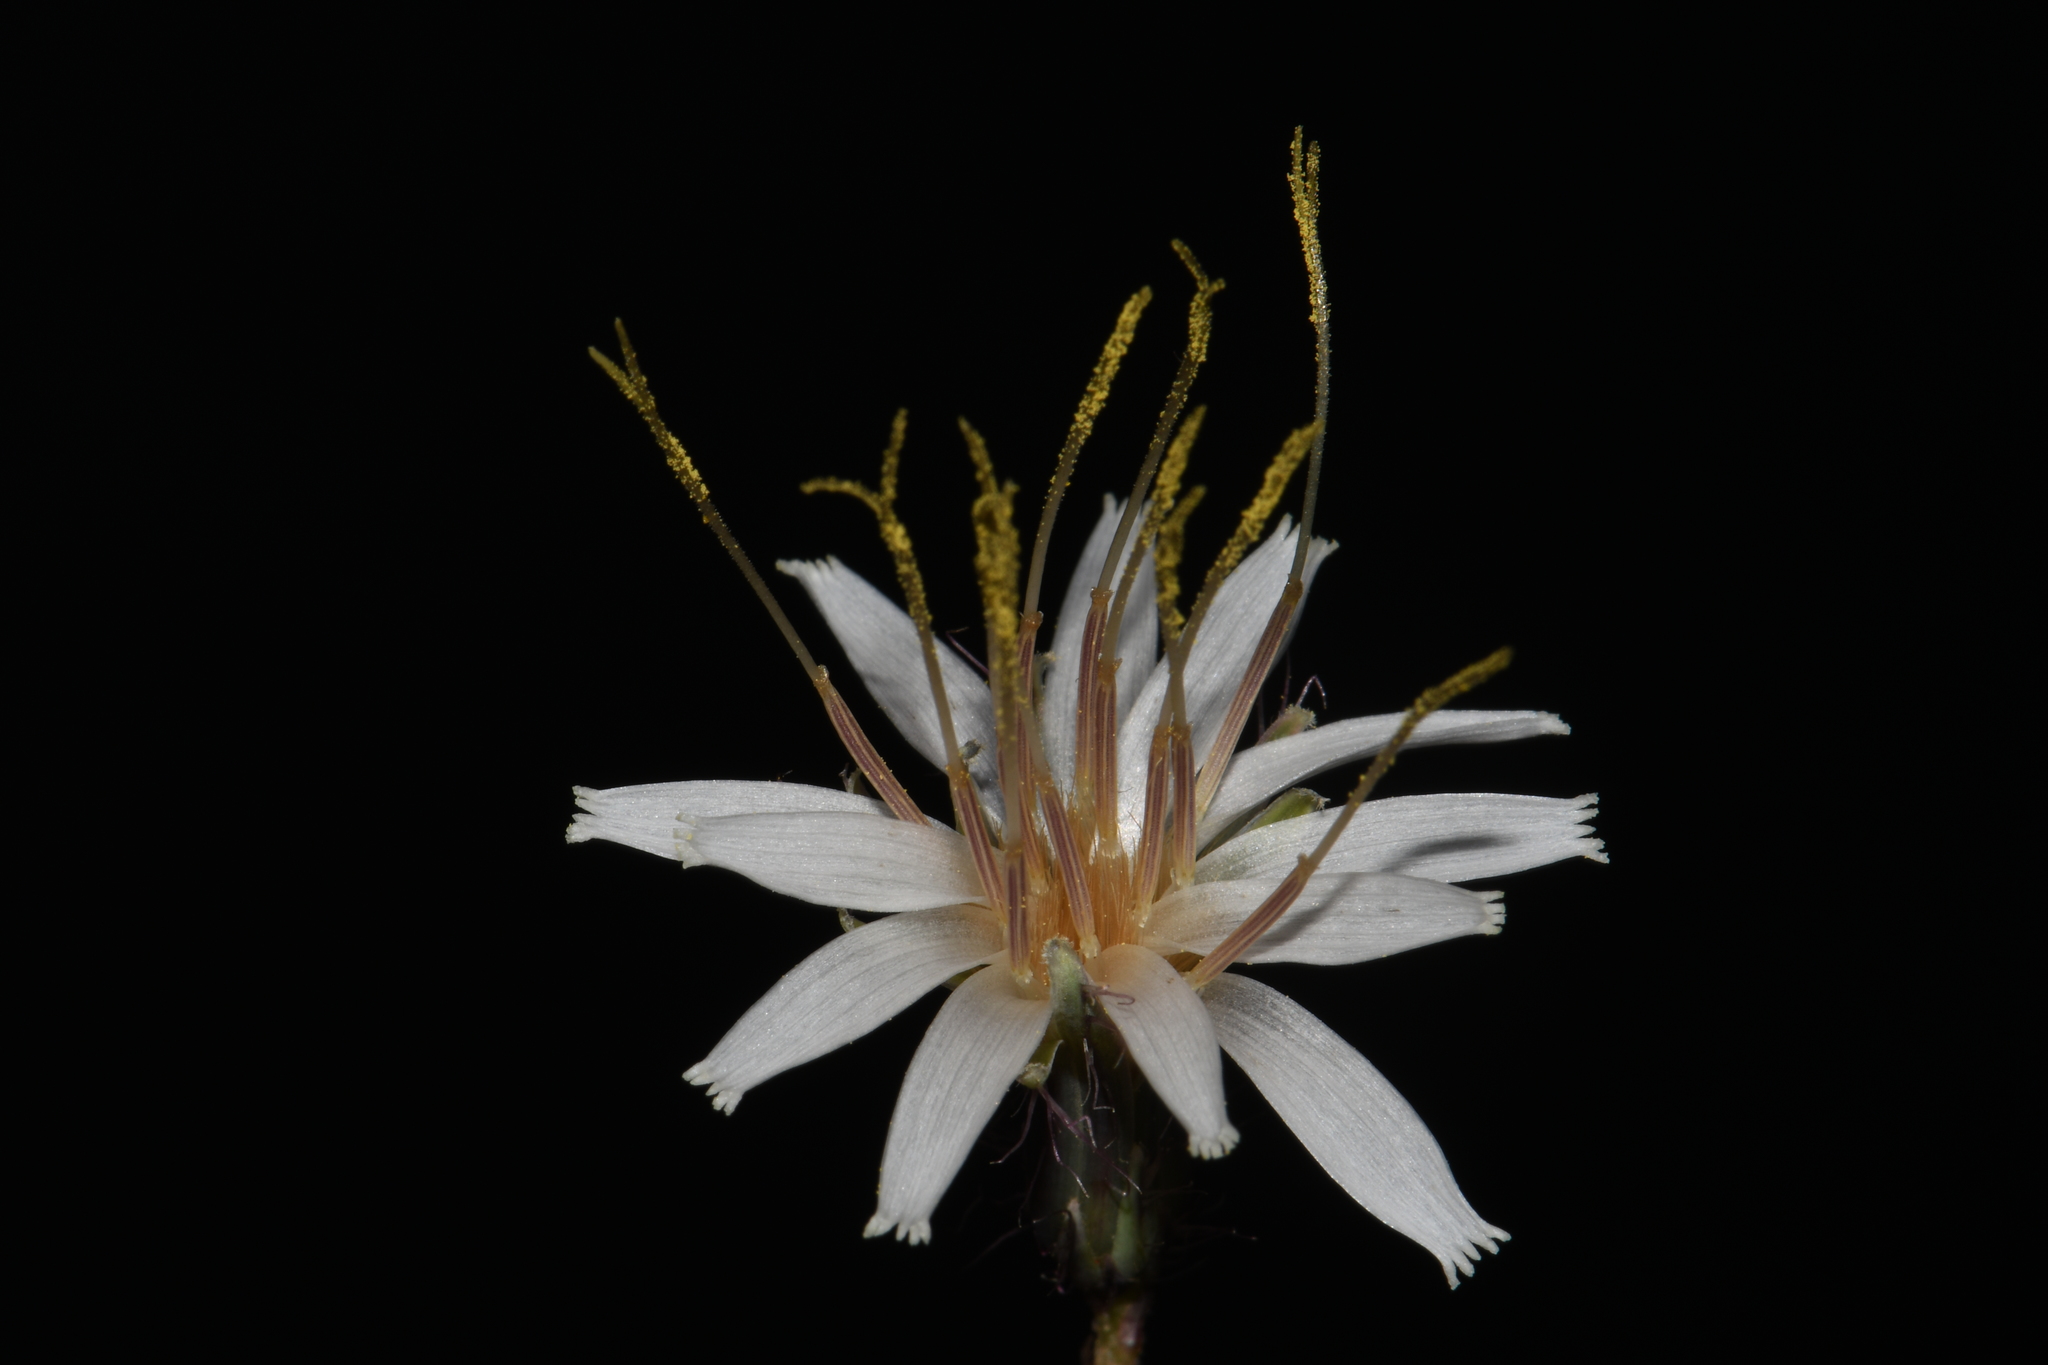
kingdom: Plantae
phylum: Tracheophyta
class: Magnoliopsida
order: Asterales
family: Asteraceae
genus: Nabalus
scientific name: Nabalus barbata
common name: Barbed rattlesnakeroot
